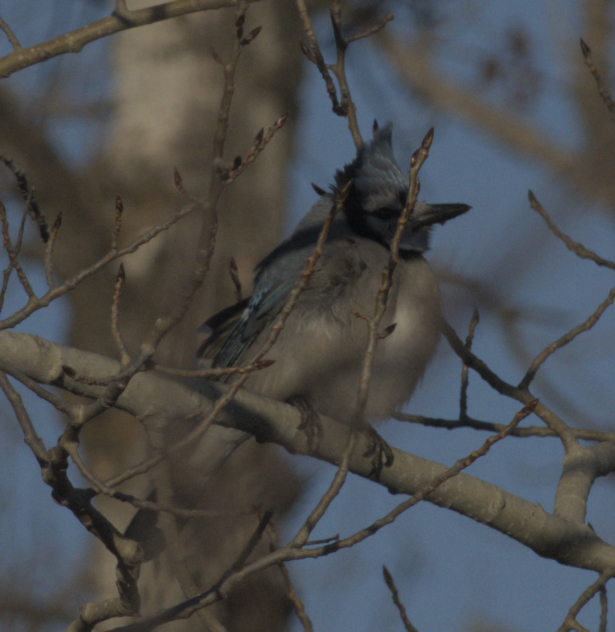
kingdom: Animalia
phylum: Chordata
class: Aves
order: Passeriformes
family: Corvidae
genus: Cyanocitta
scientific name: Cyanocitta cristata
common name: Blue jay
